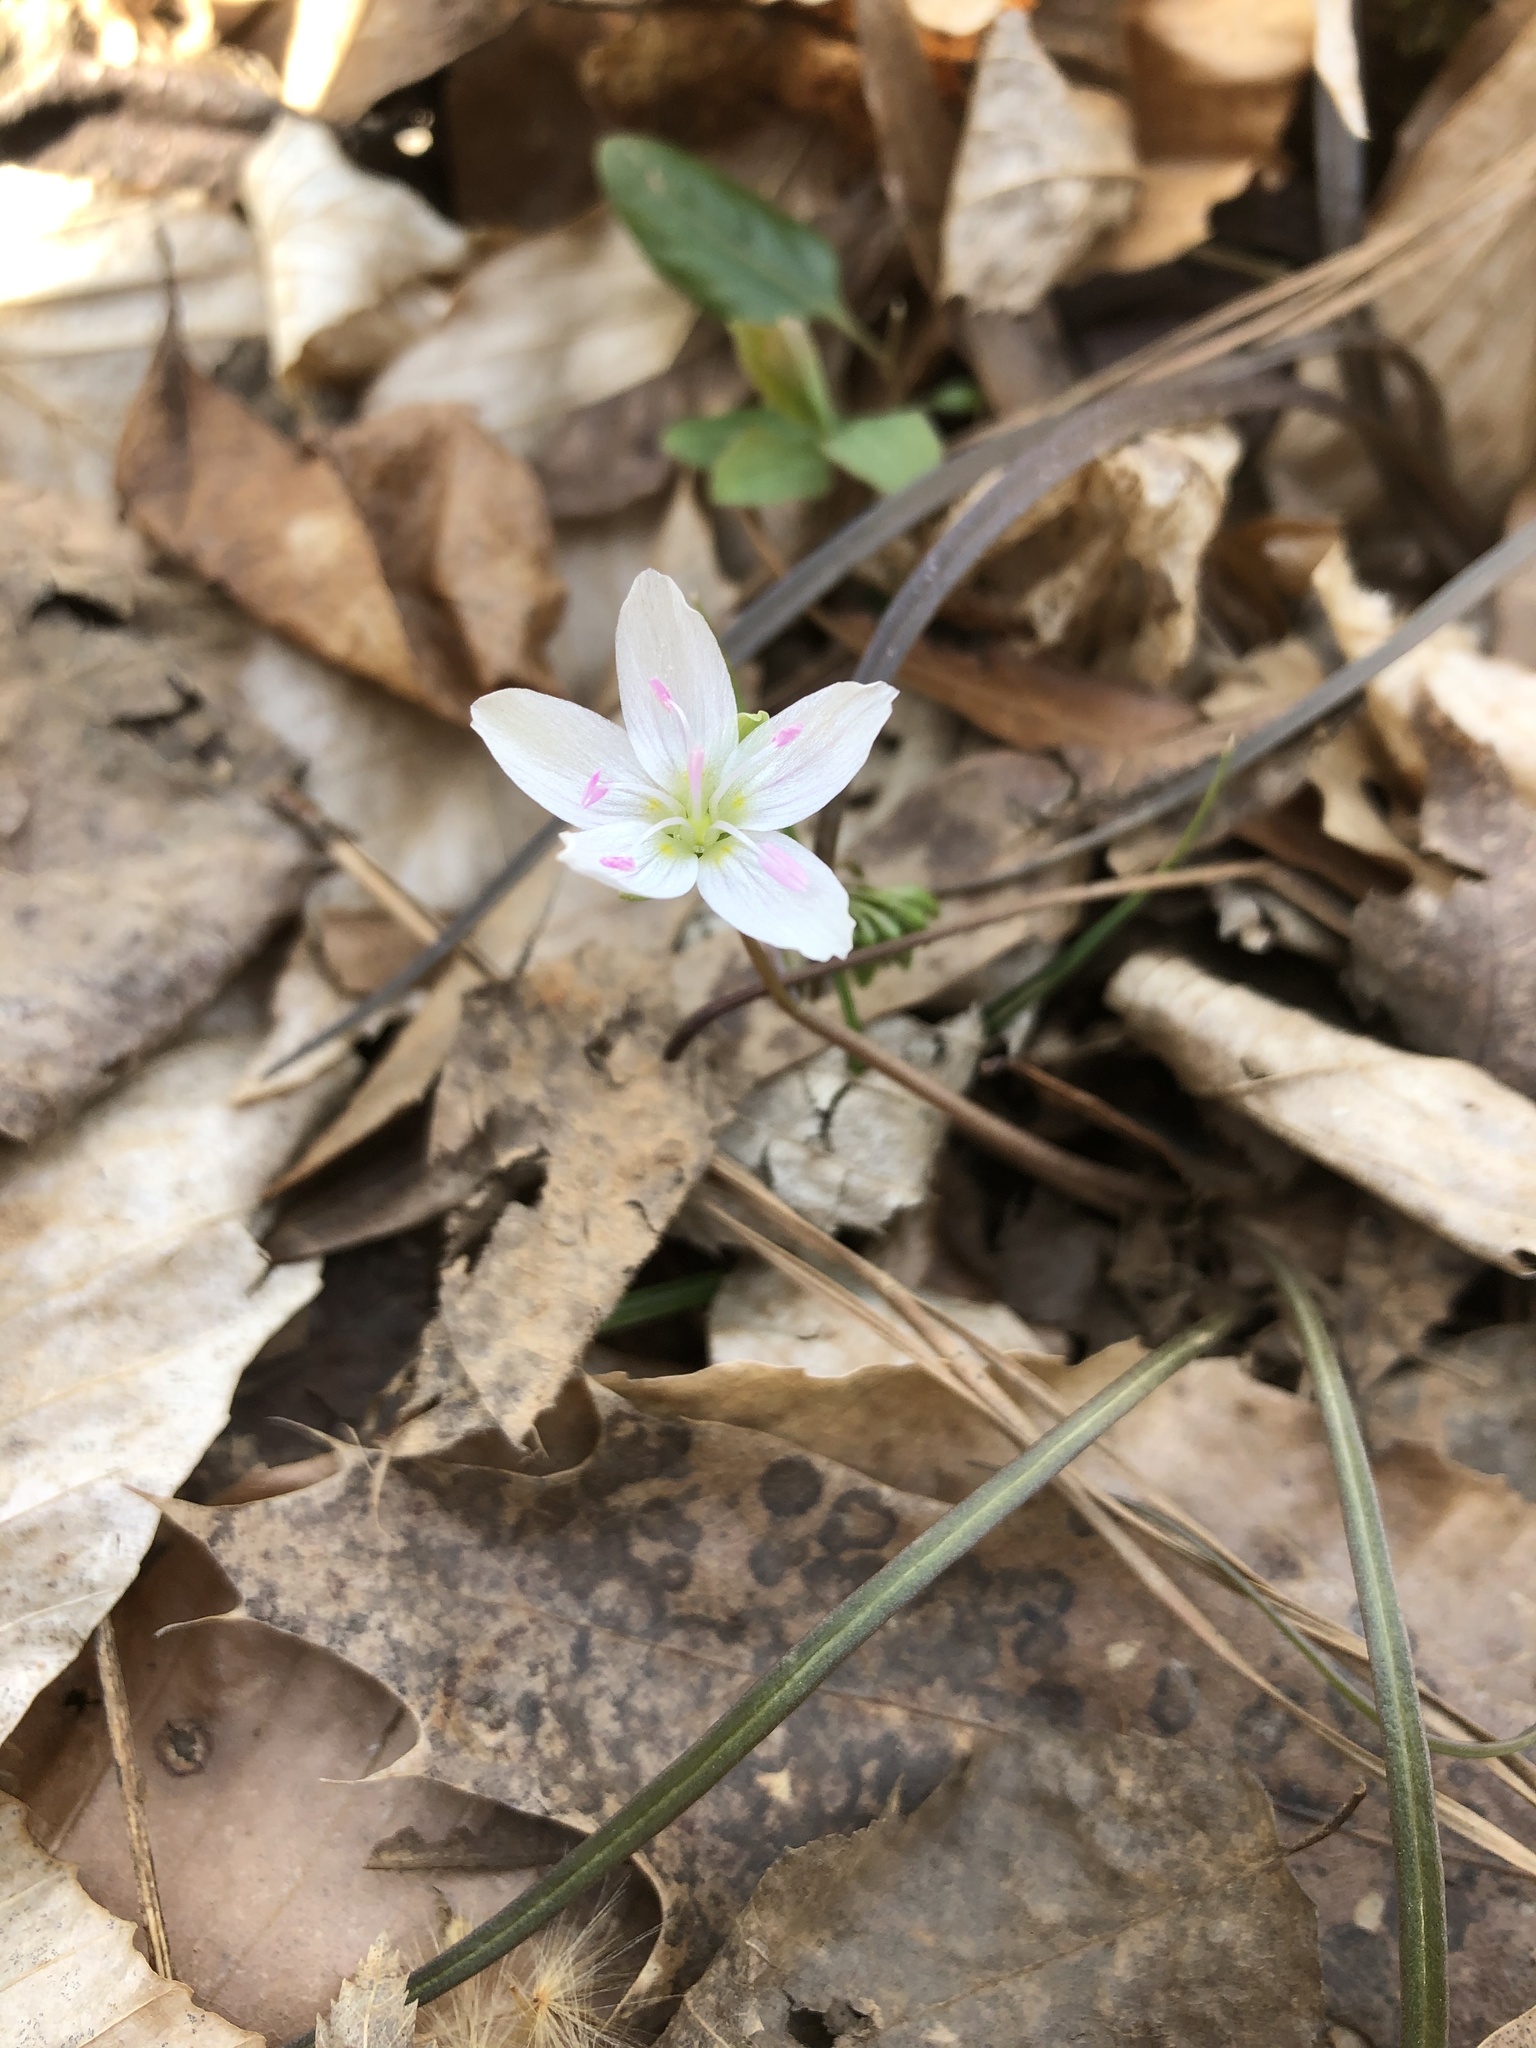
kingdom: Plantae
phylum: Tracheophyta
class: Magnoliopsida
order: Caryophyllales
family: Montiaceae
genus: Claytonia
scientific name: Claytonia virginica
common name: Virginia springbeauty
